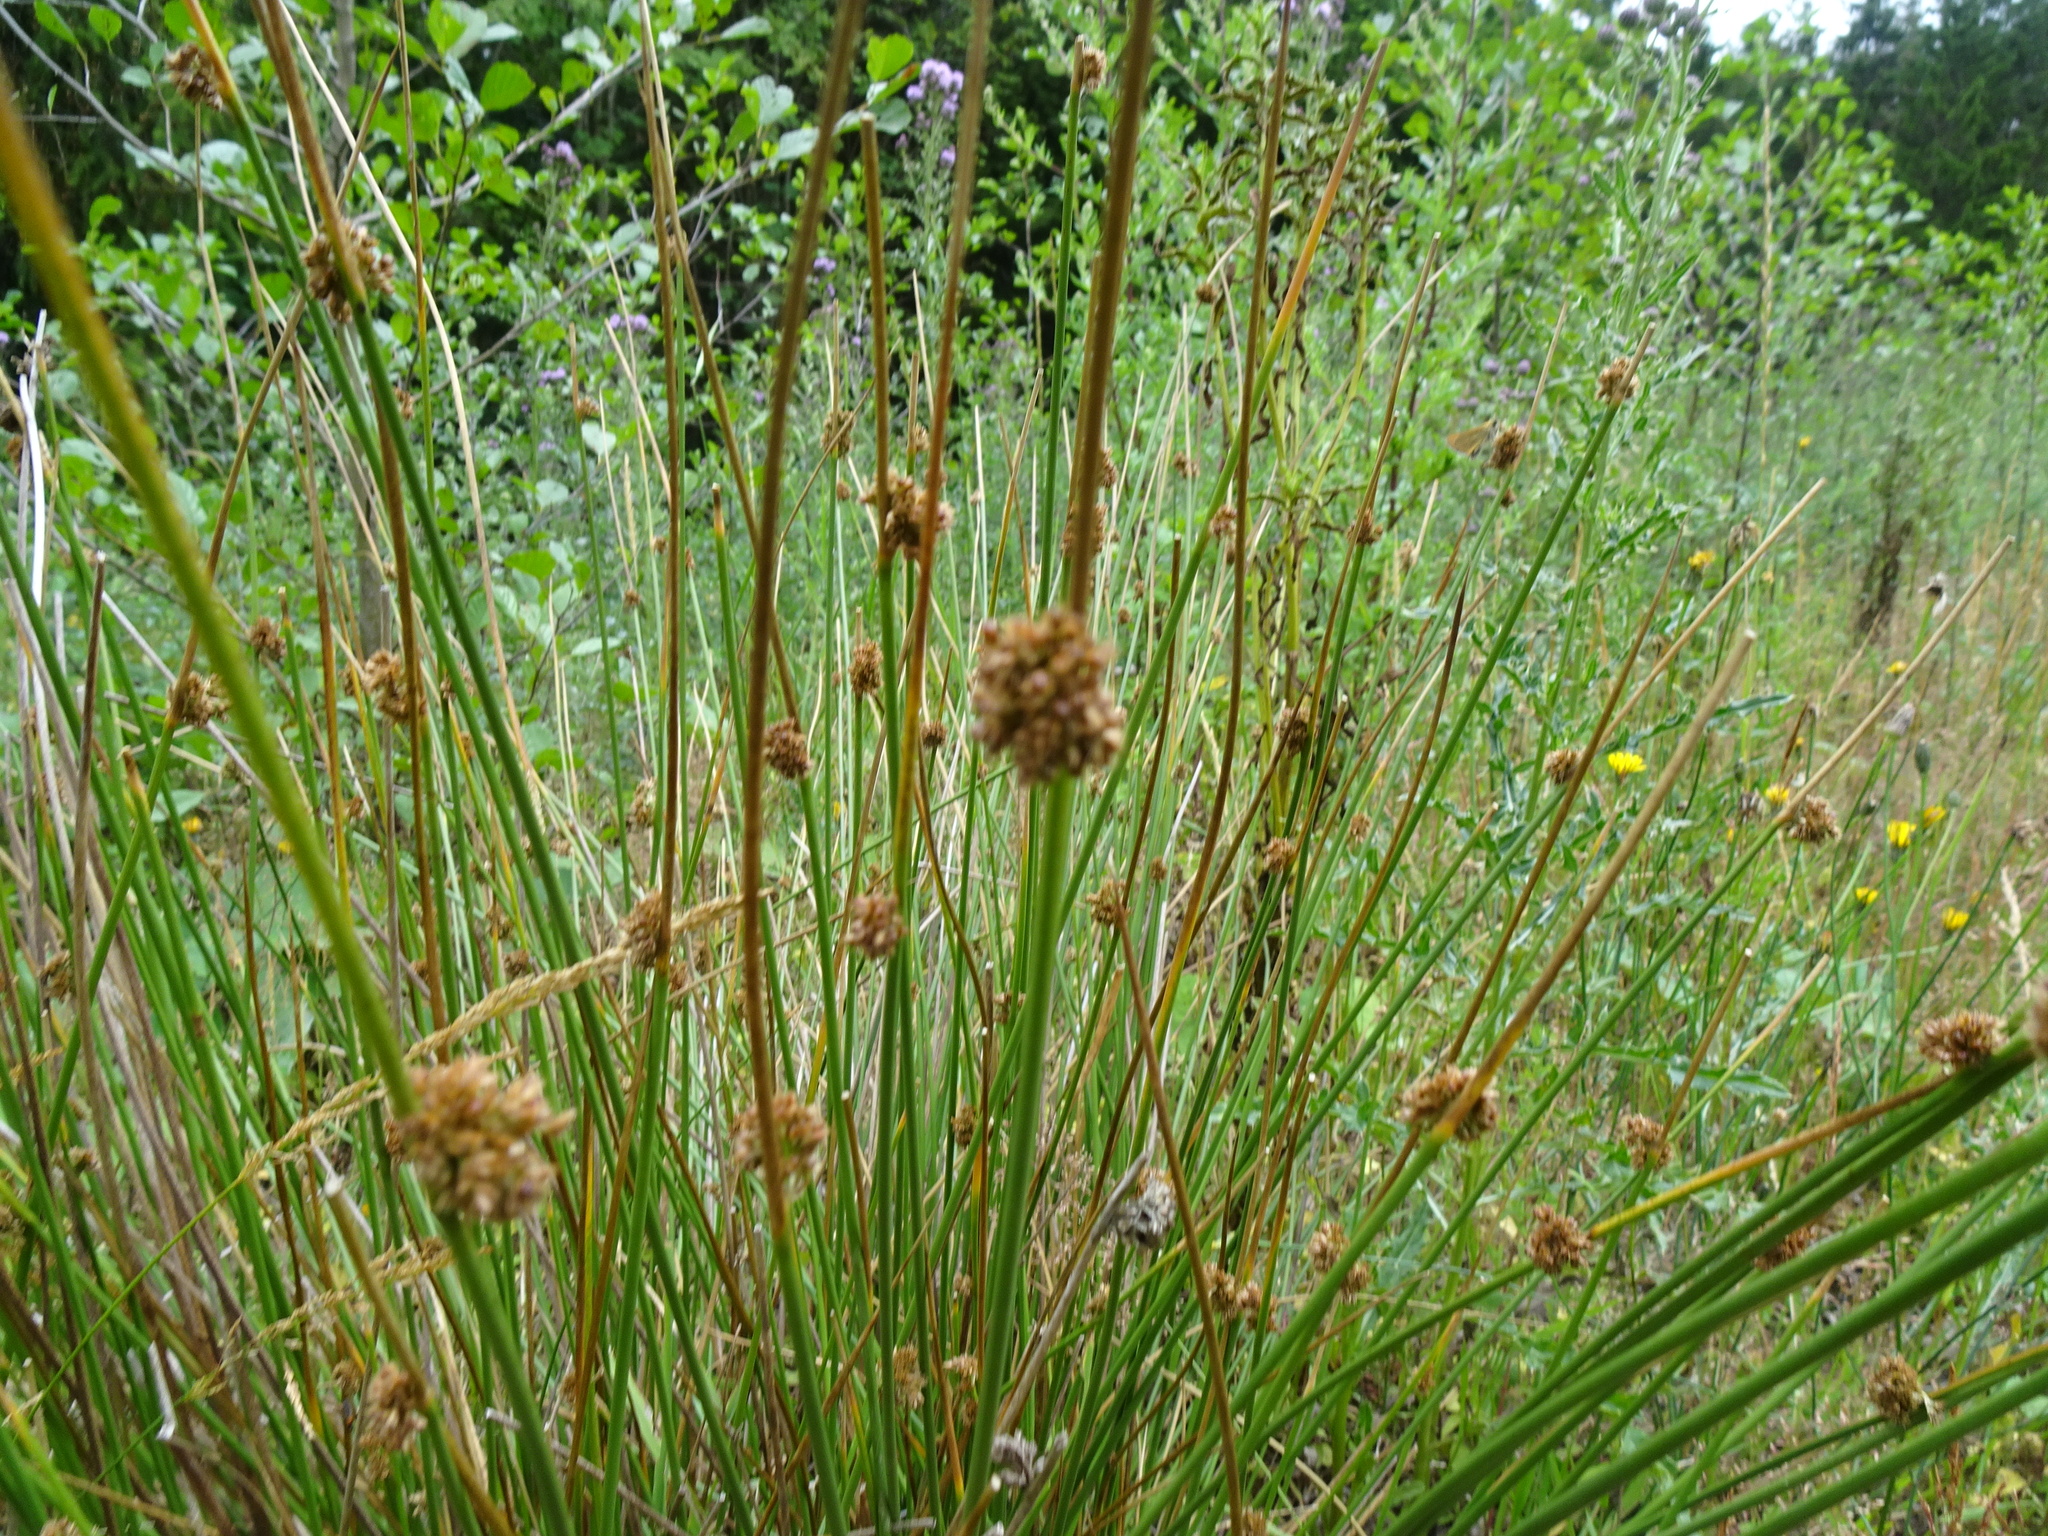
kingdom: Plantae
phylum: Tracheophyta
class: Liliopsida
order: Poales
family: Juncaceae
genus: Juncus
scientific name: Juncus effusus
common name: Soft rush
